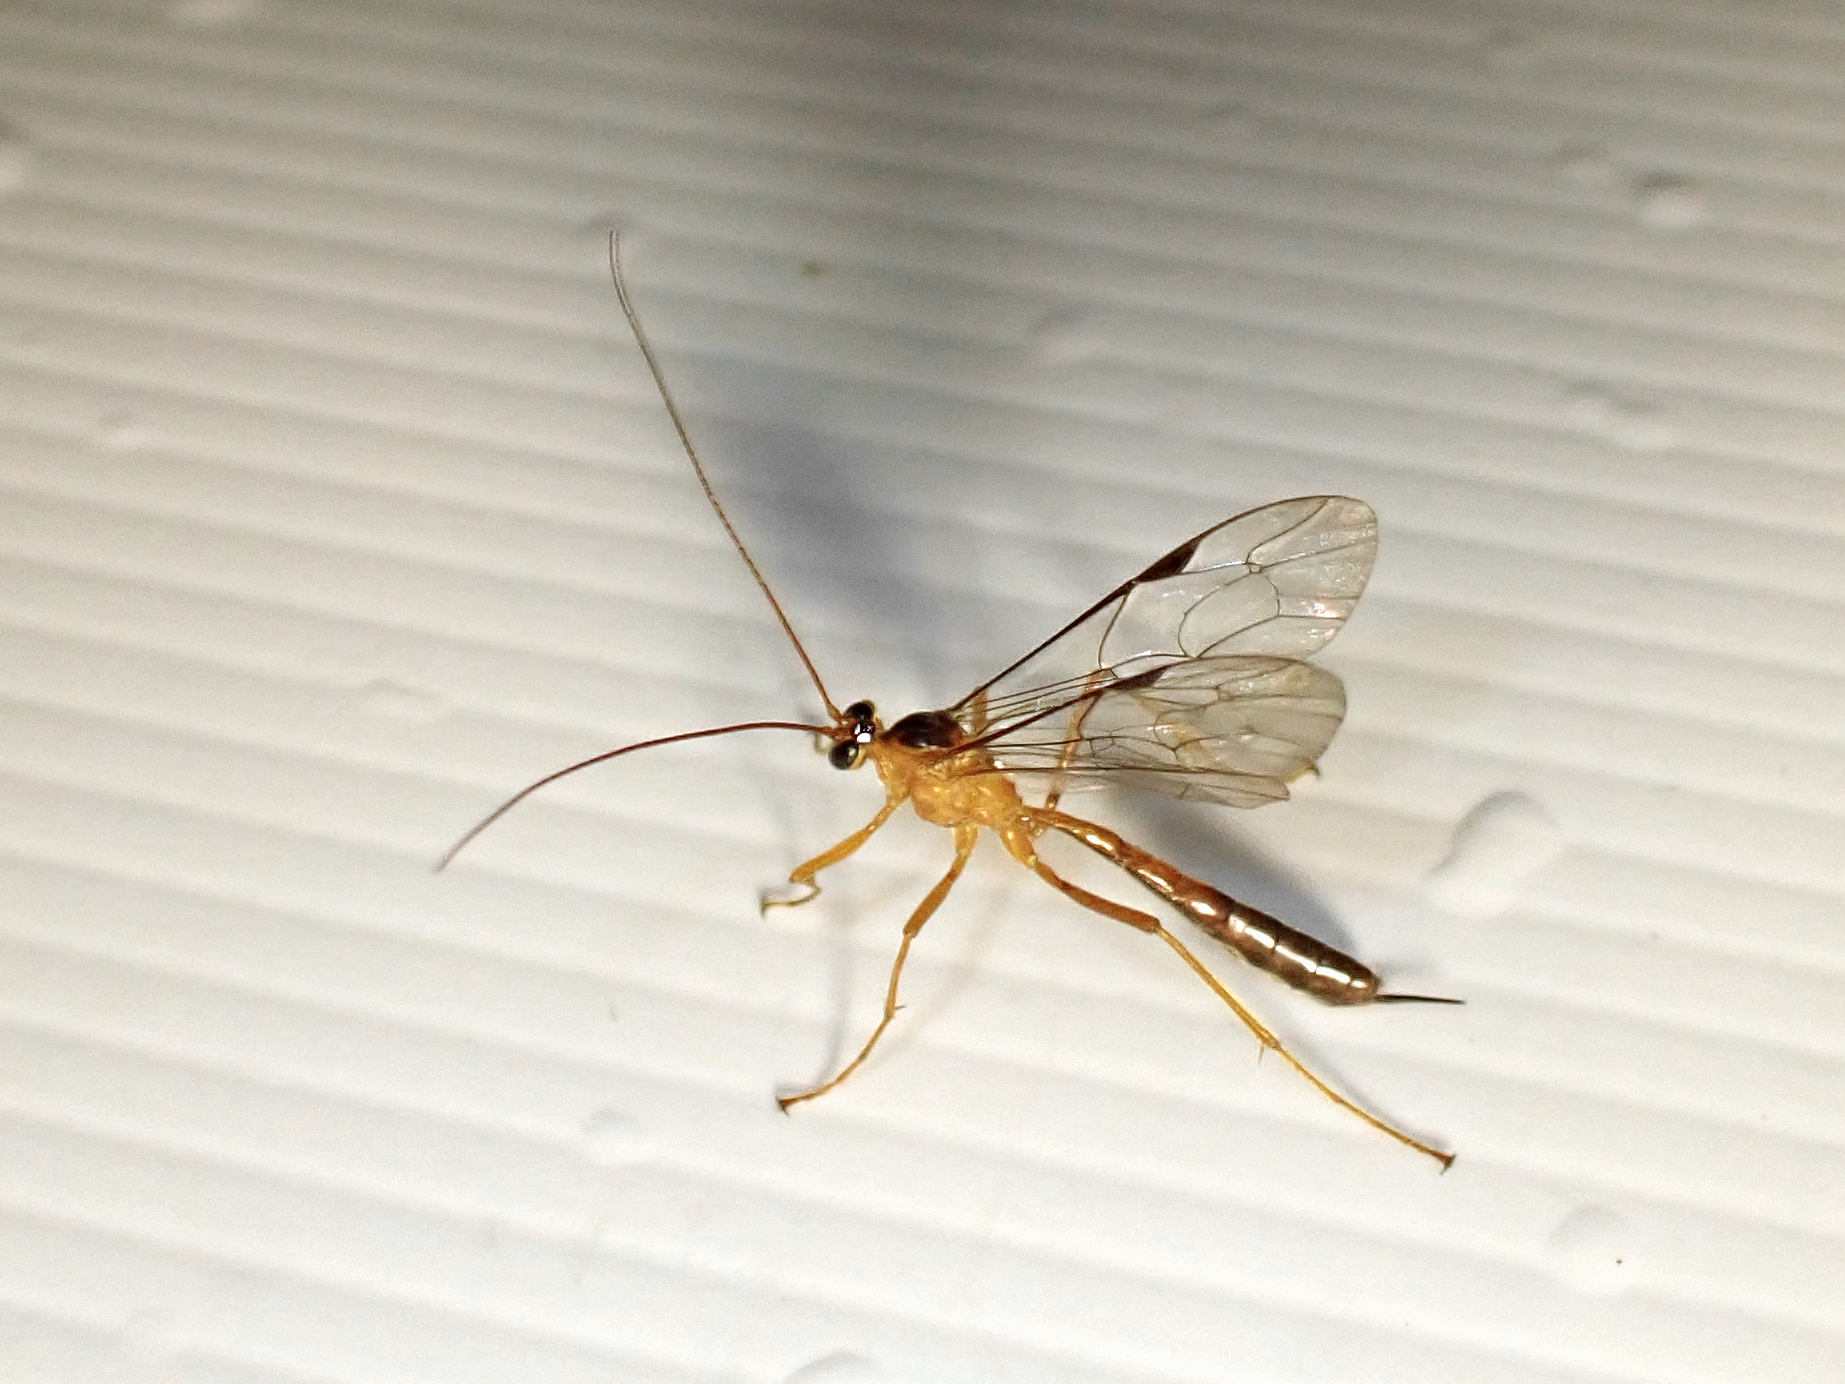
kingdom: Animalia
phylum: Arthropoda
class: Insecta
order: Hymenoptera
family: Ichneumonidae
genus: Netelia
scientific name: Netelia ephippiata
